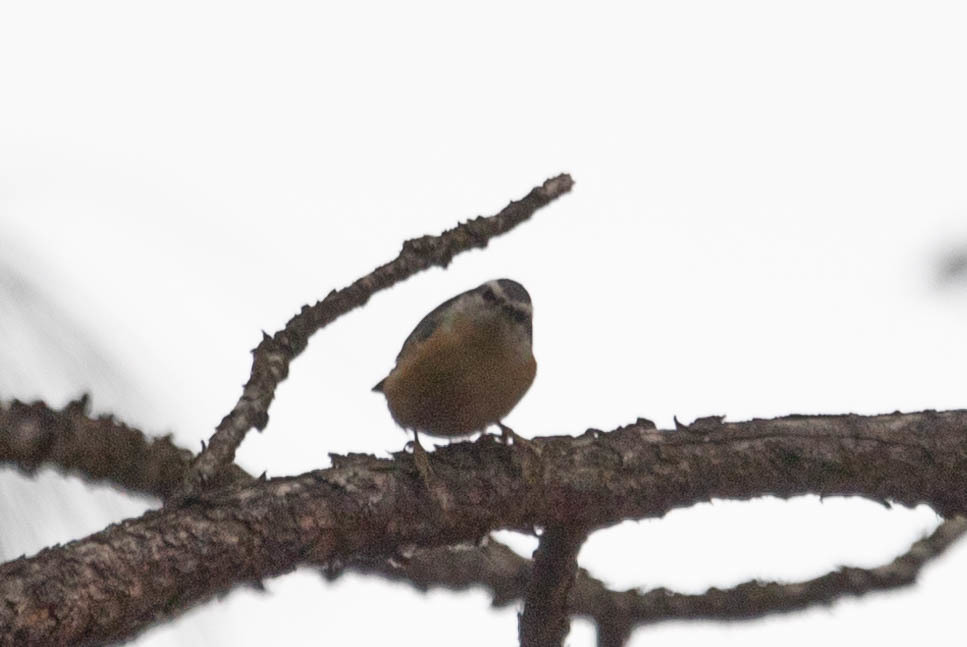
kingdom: Animalia
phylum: Chordata
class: Aves
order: Passeriformes
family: Sittidae
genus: Sitta
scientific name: Sitta canadensis
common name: Red-breasted nuthatch
